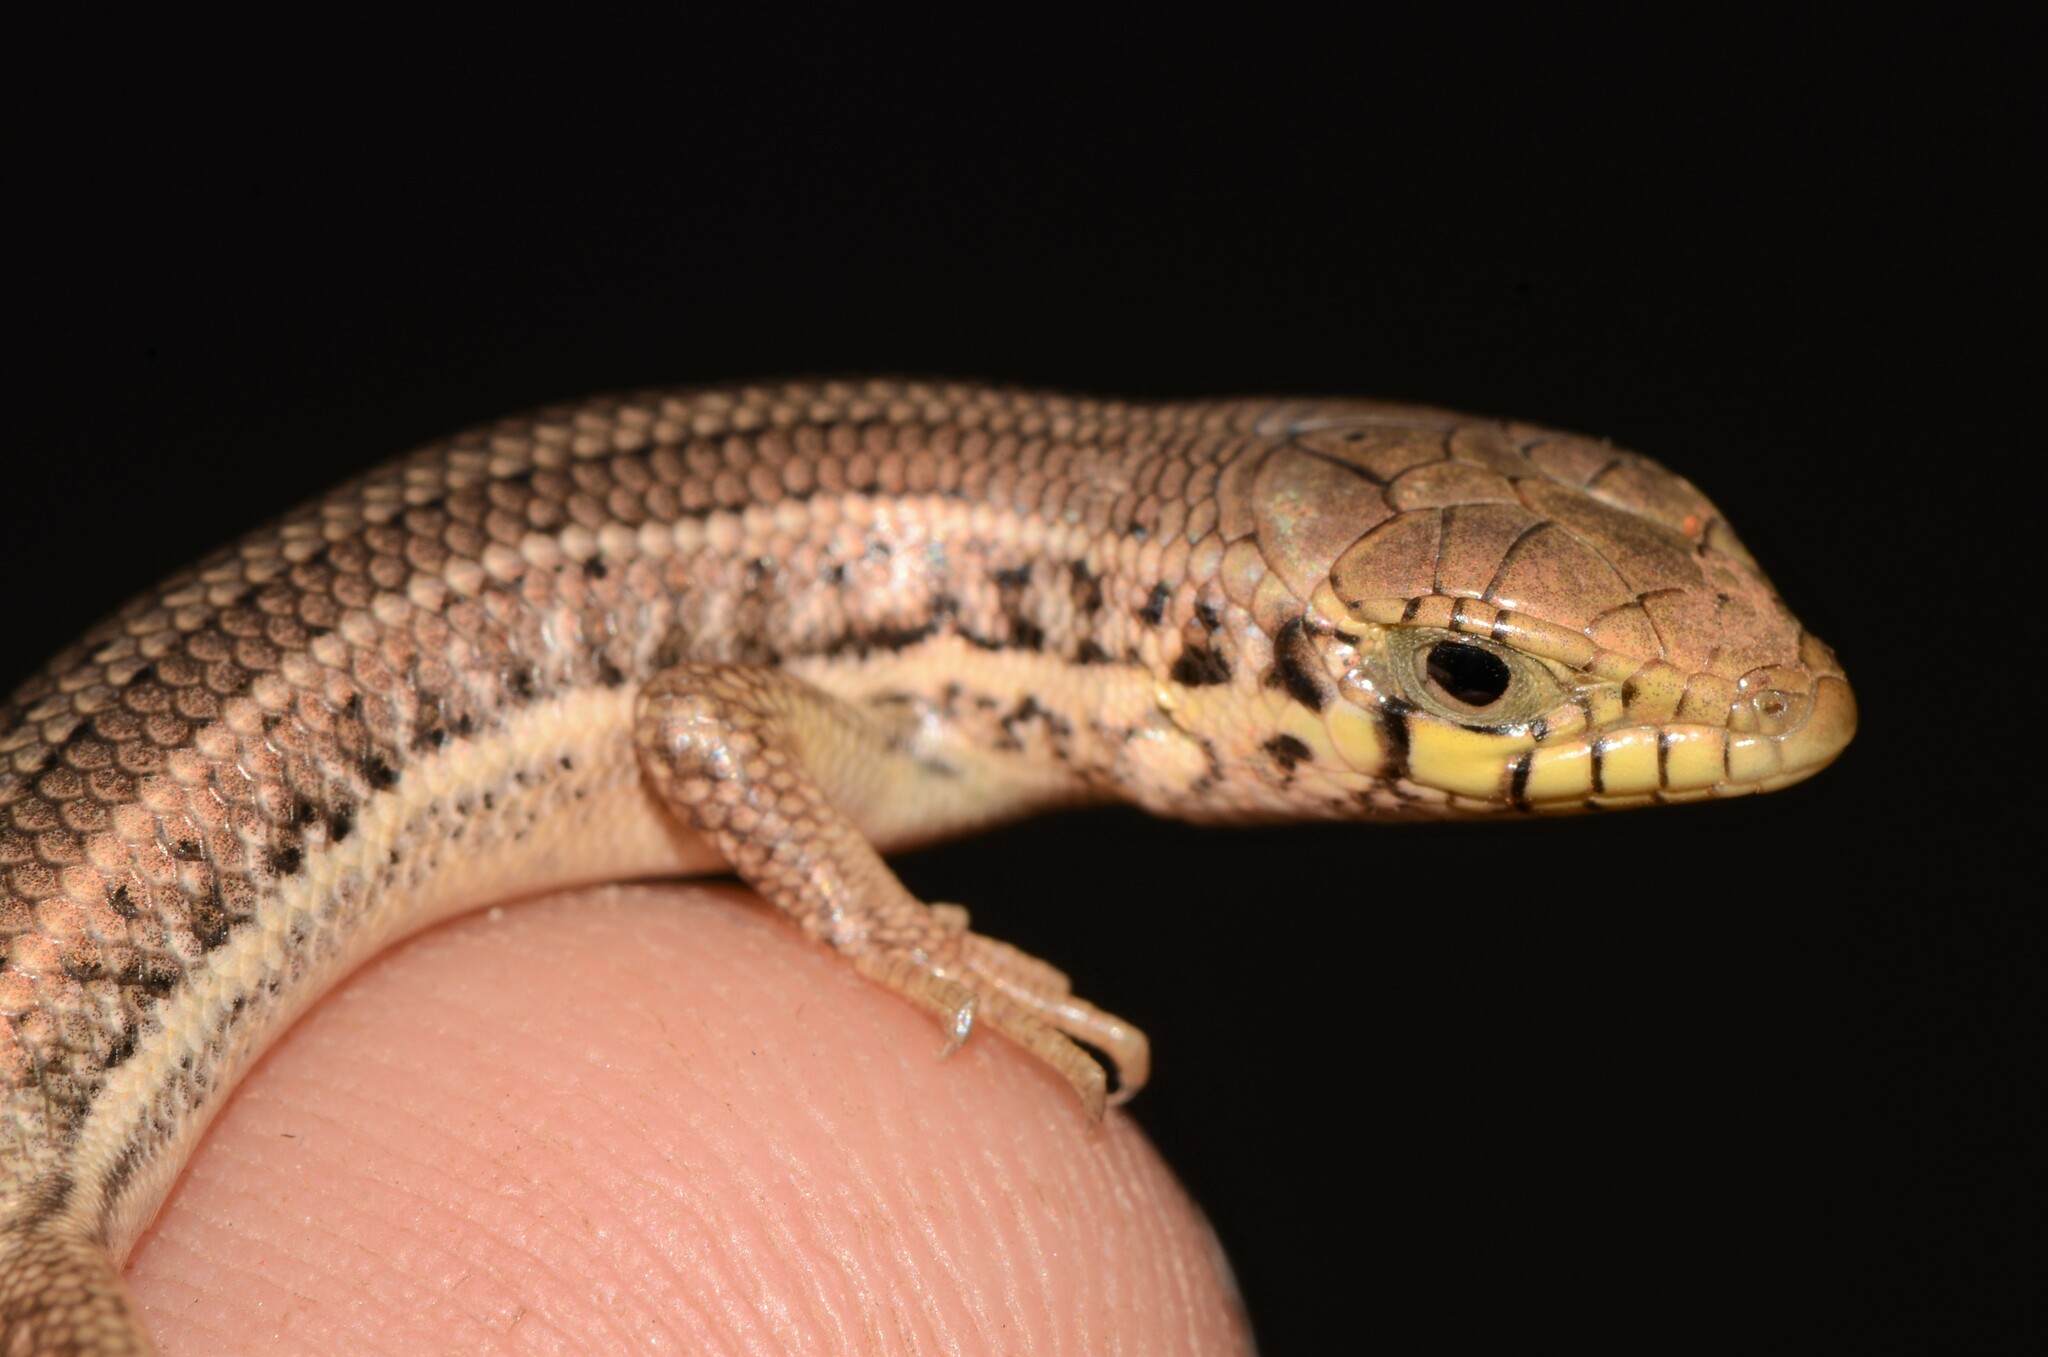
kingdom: Animalia
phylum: Chordata
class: Squamata
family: Scincidae
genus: Trachylepis
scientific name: Trachylepis occidentalis
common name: Western three-striped skink
